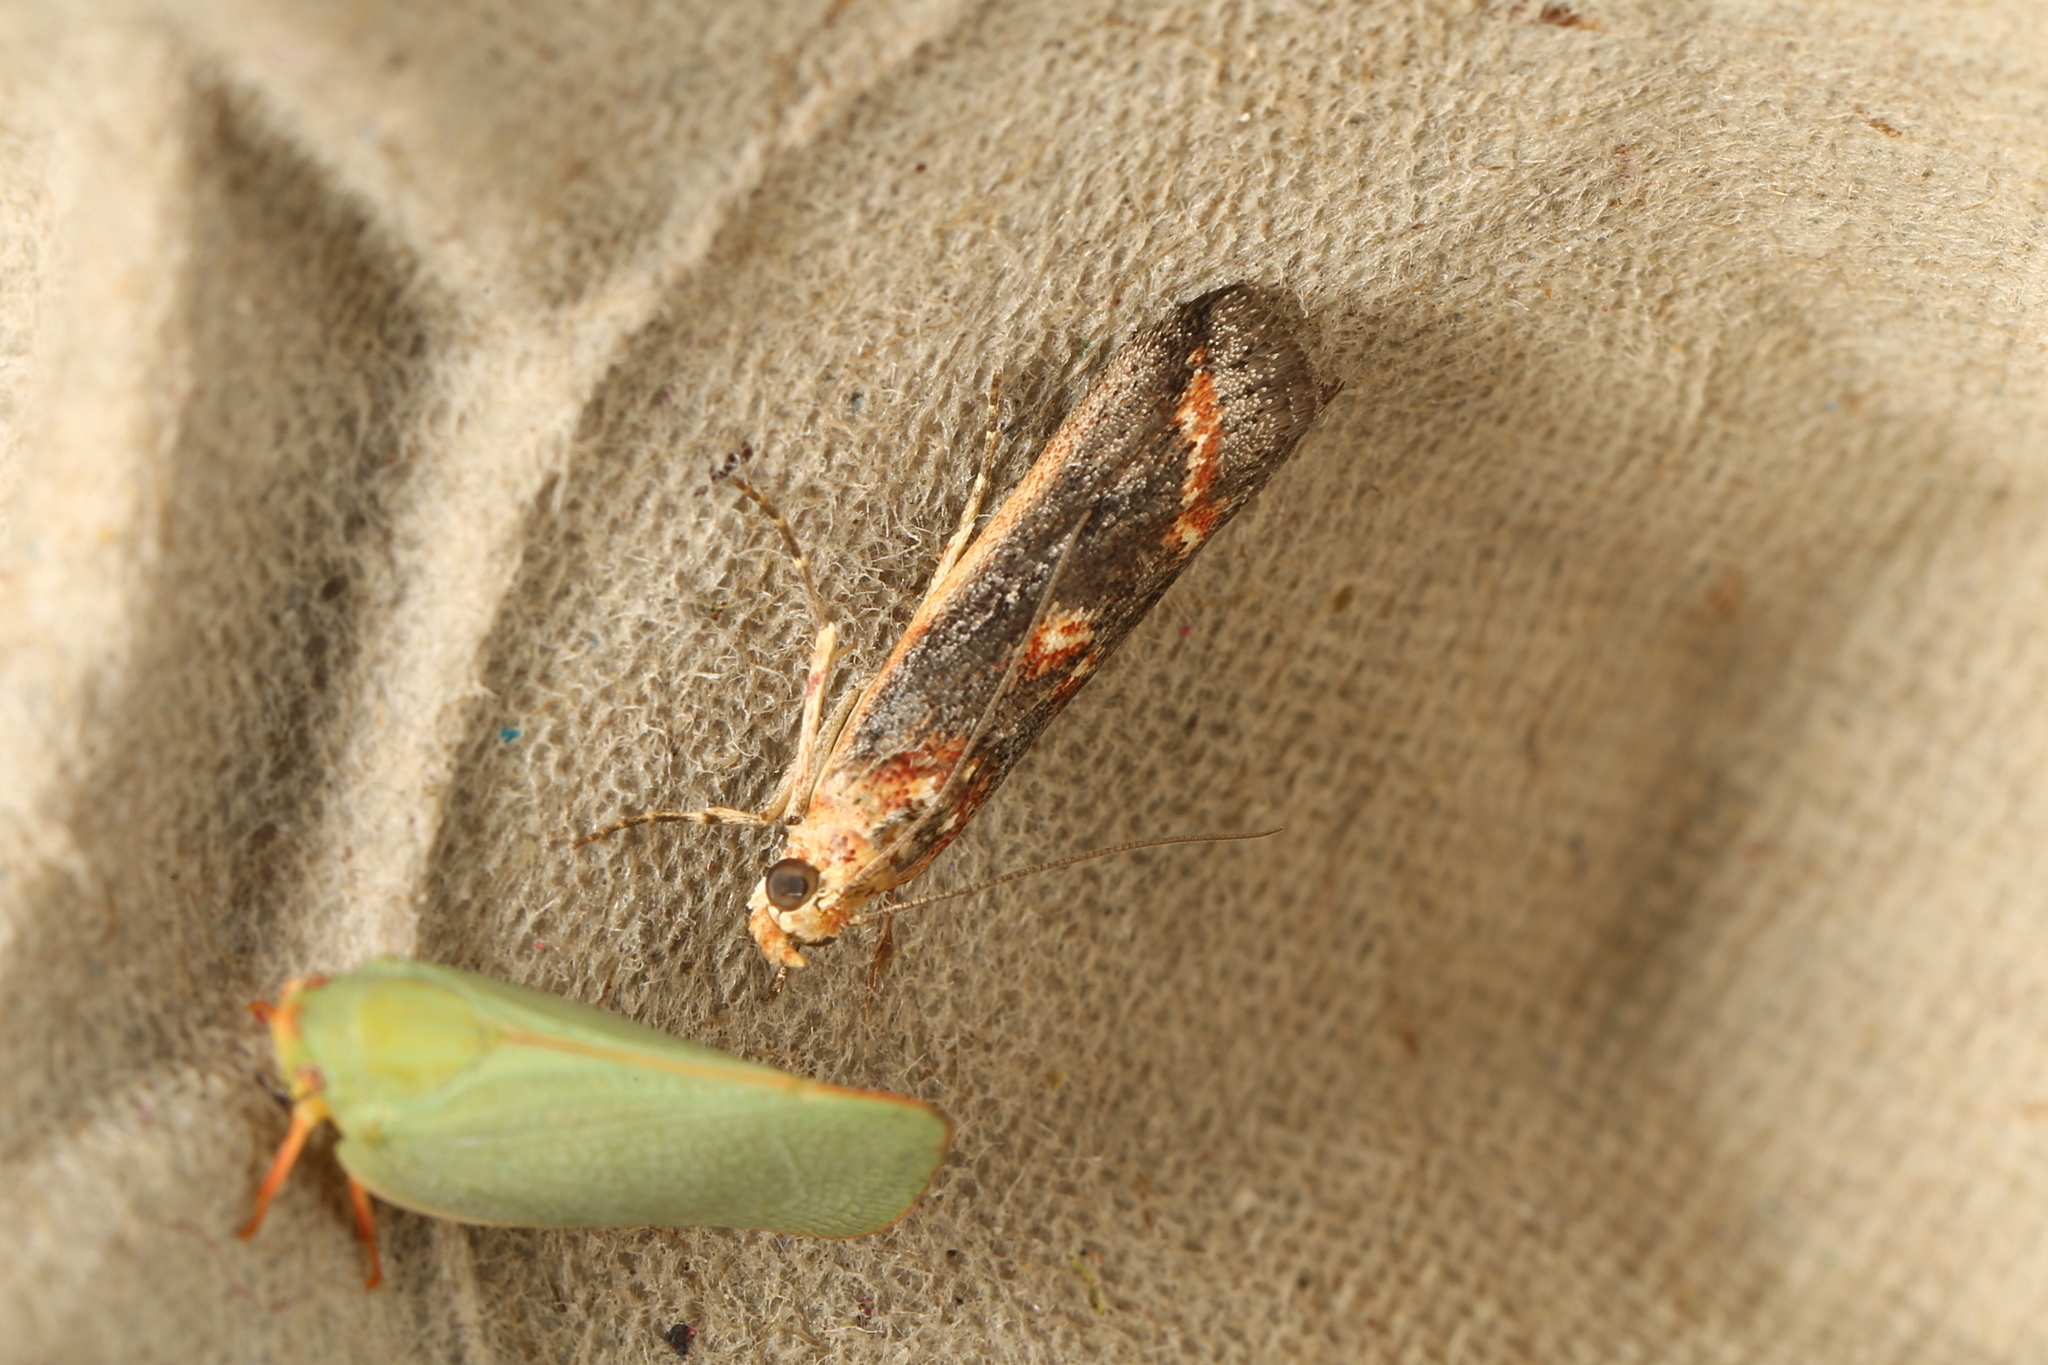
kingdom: Animalia
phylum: Arthropoda
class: Insecta
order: Lepidoptera
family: Pyralidae
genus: Morosaphycita
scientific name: Morosaphycita poliochyta
